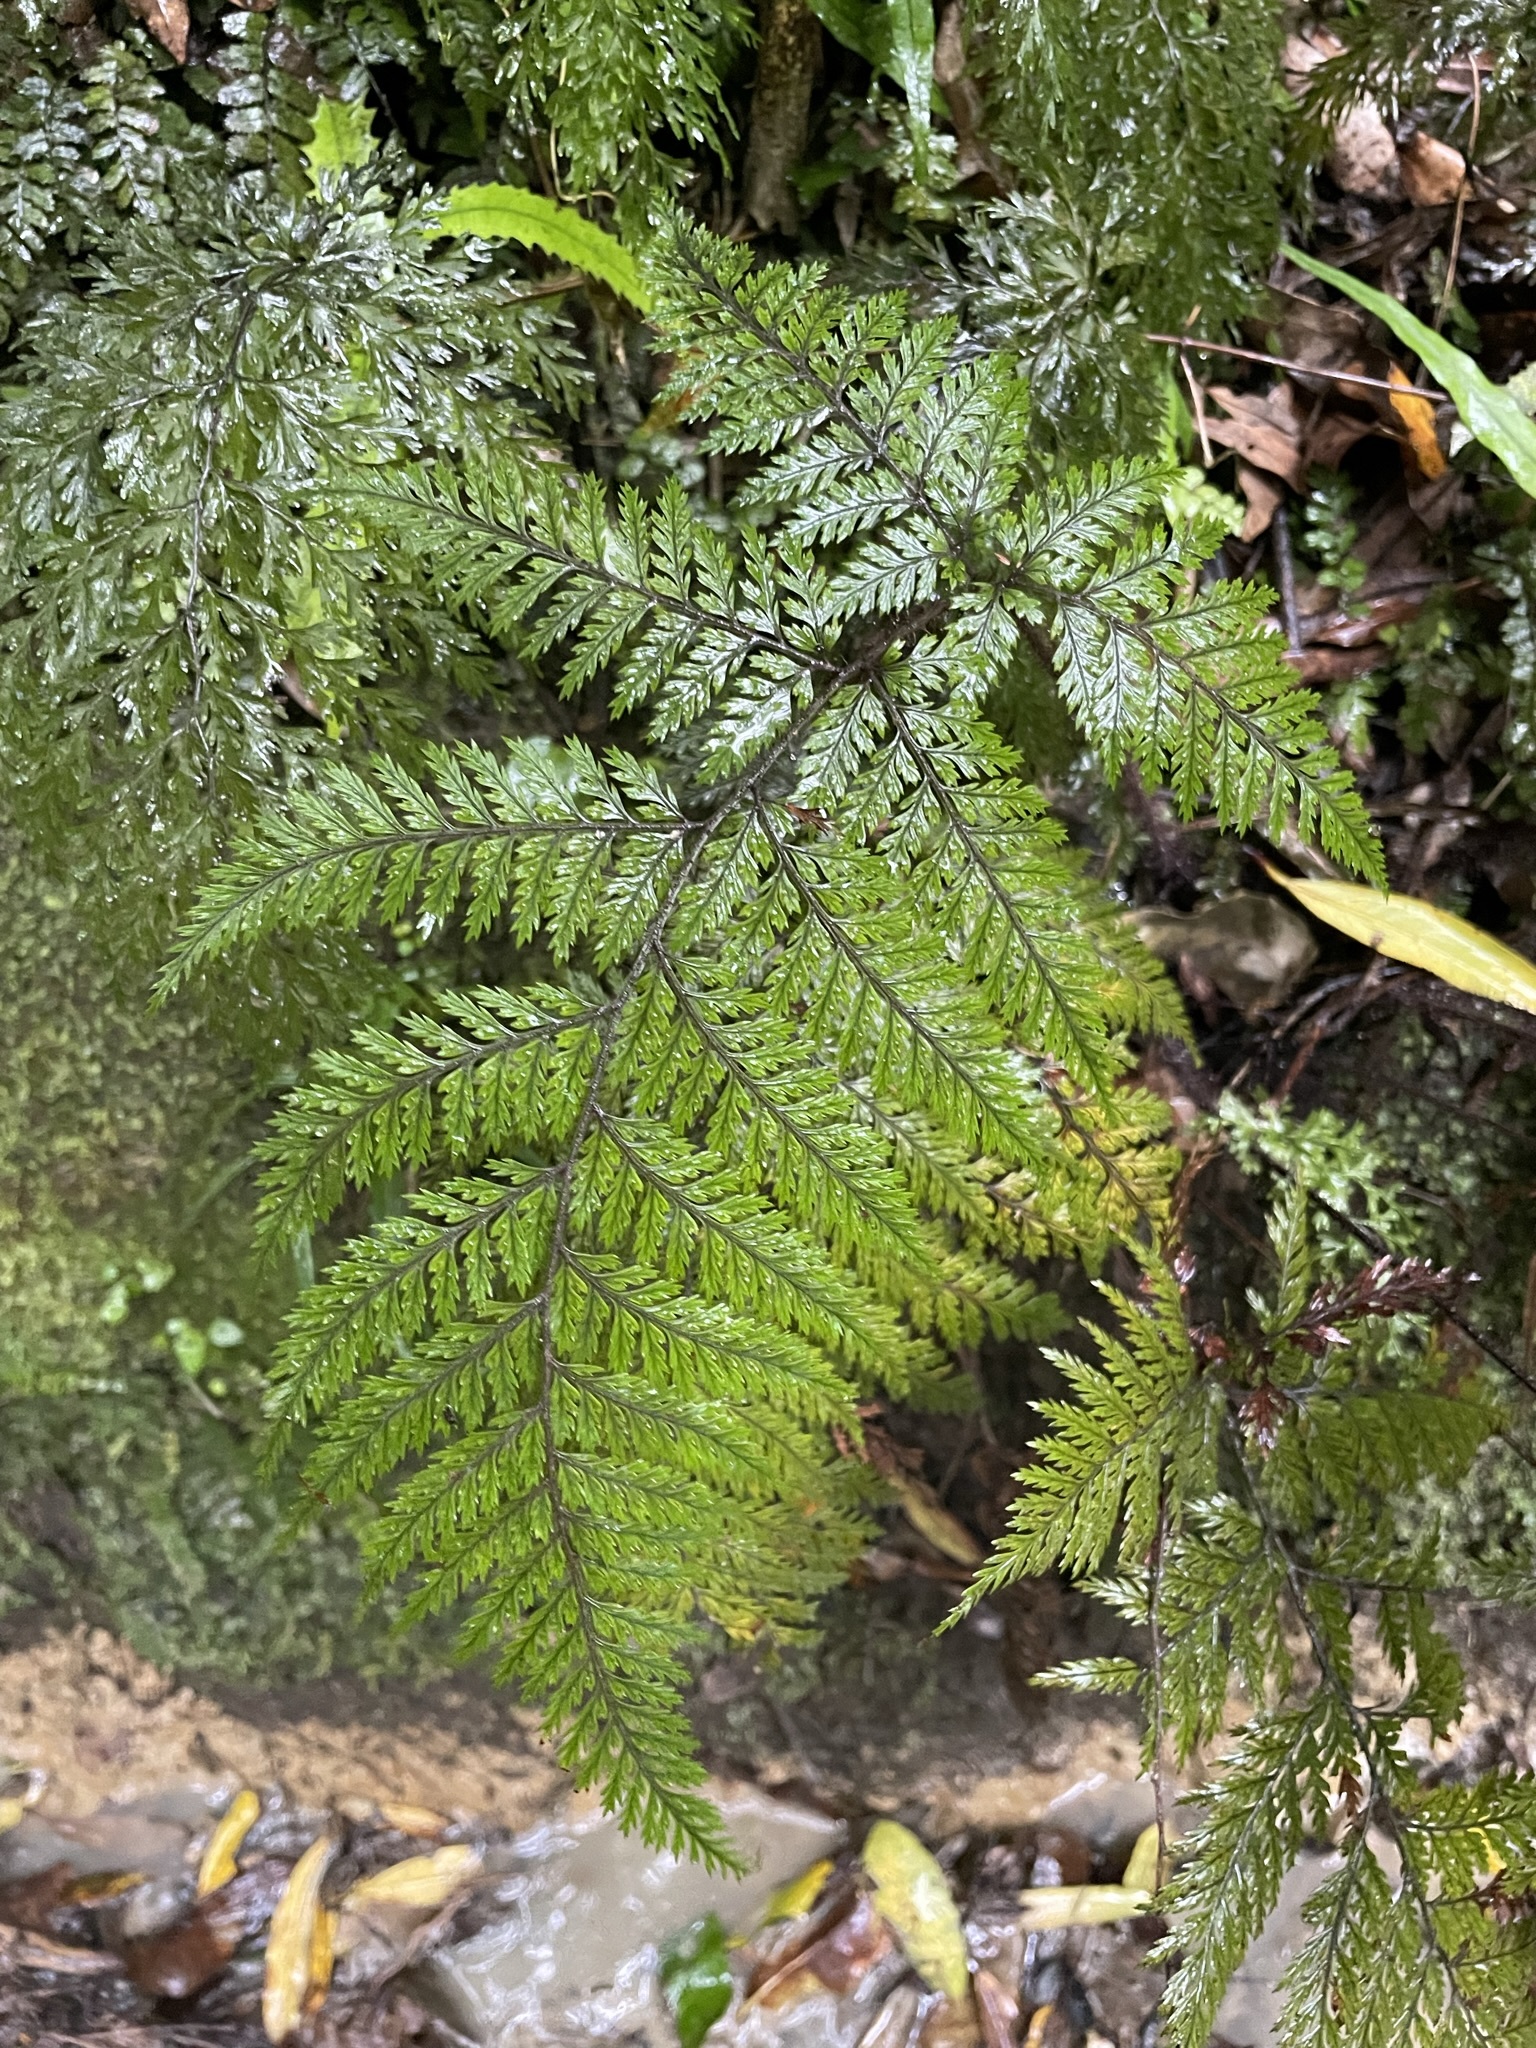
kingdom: Plantae
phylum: Tracheophyta
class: Polypodiopsida
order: Polypodiales
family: Dryopteridaceae
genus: Lastreopsis
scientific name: Lastreopsis hispida
